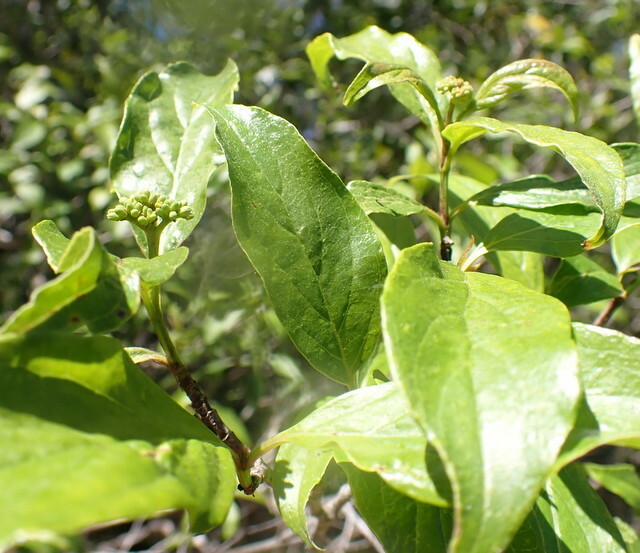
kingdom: Plantae
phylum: Tracheophyta
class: Magnoliopsida
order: Cornales
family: Cornaceae
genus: Cornus
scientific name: Cornus foemina
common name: Swamp dogwood
